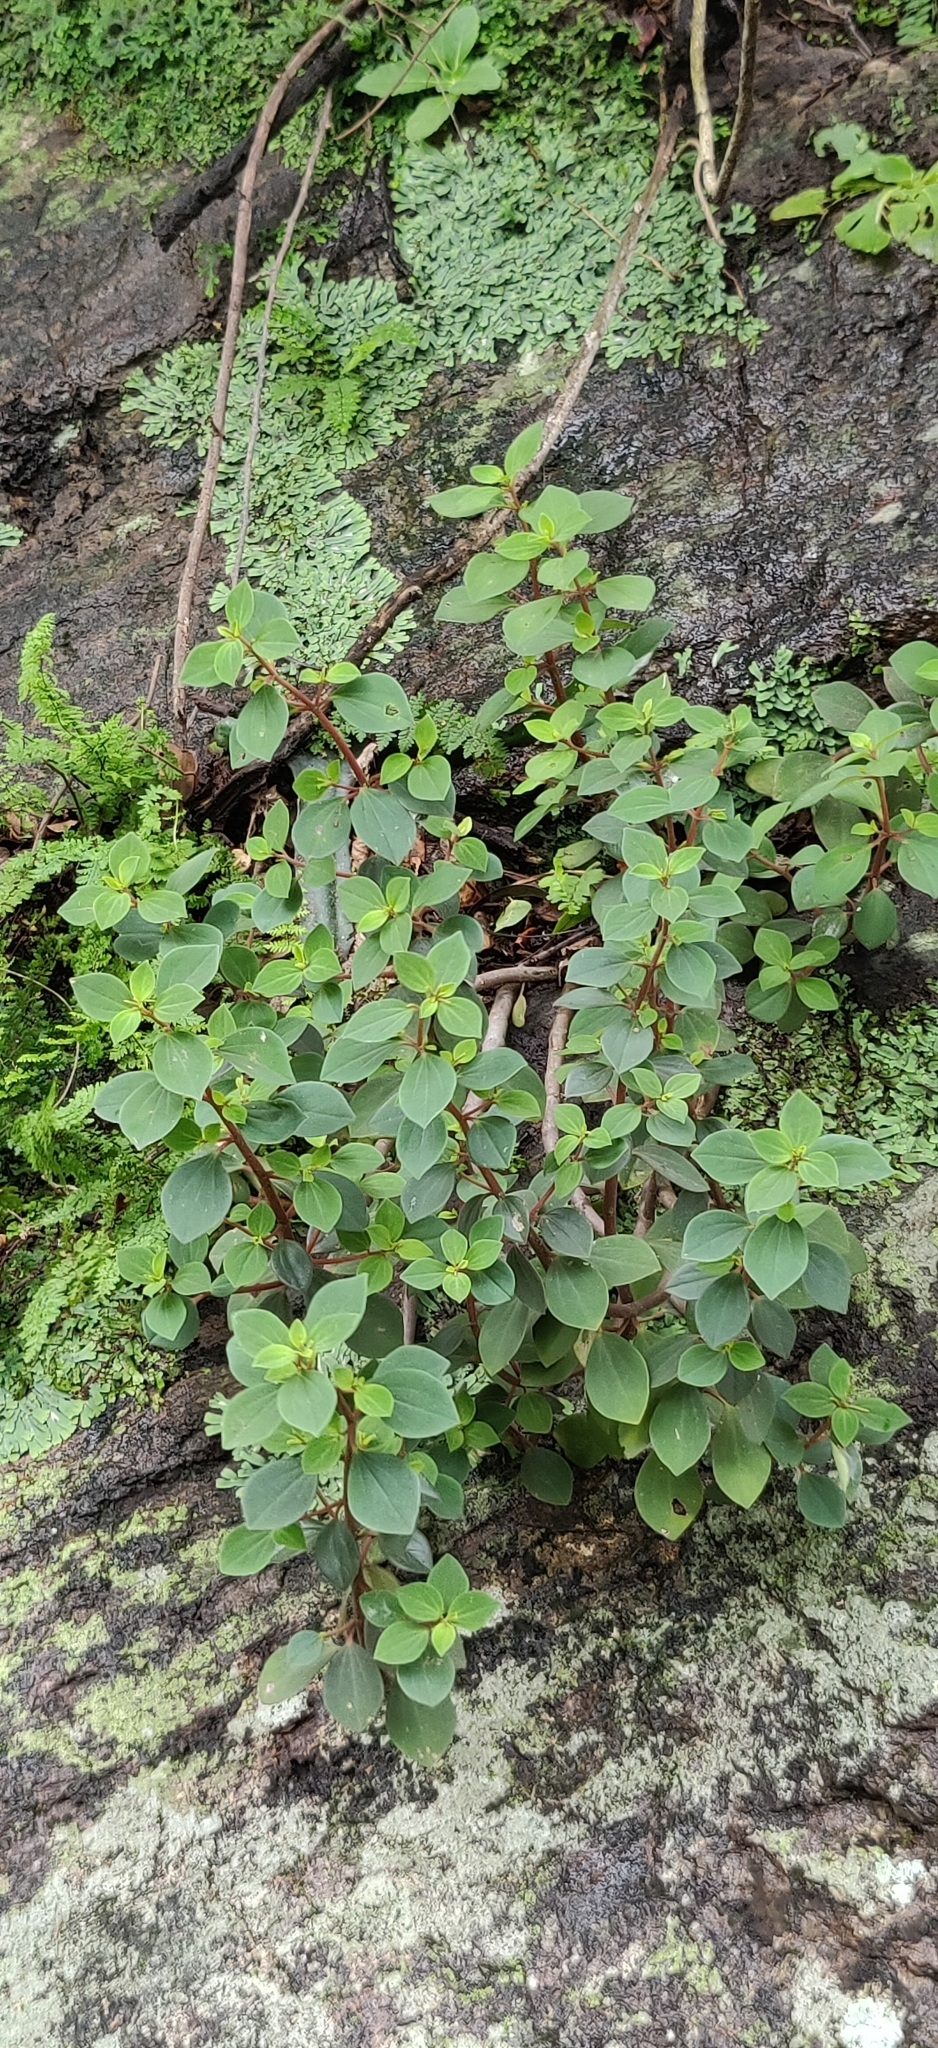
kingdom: Plantae
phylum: Tracheophyta
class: Magnoliopsida
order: Piperales
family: Piperaceae
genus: Peperomia
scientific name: Peperomia leptostachya
